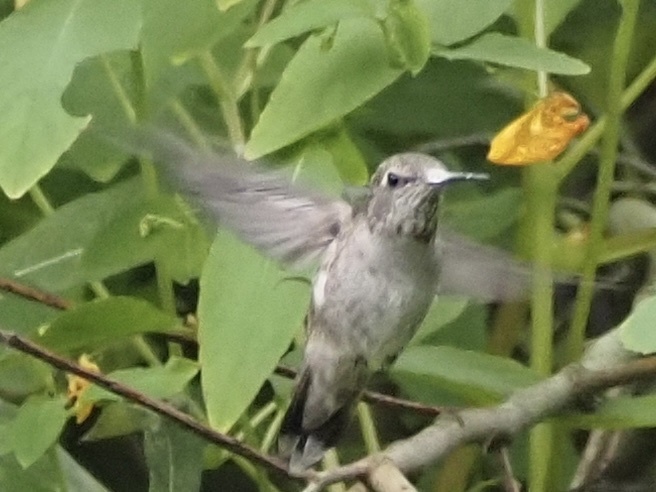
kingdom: Animalia
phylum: Chordata
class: Aves
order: Apodiformes
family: Trochilidae
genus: Calypte
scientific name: Calypte anna
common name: Anna's hummingbird
